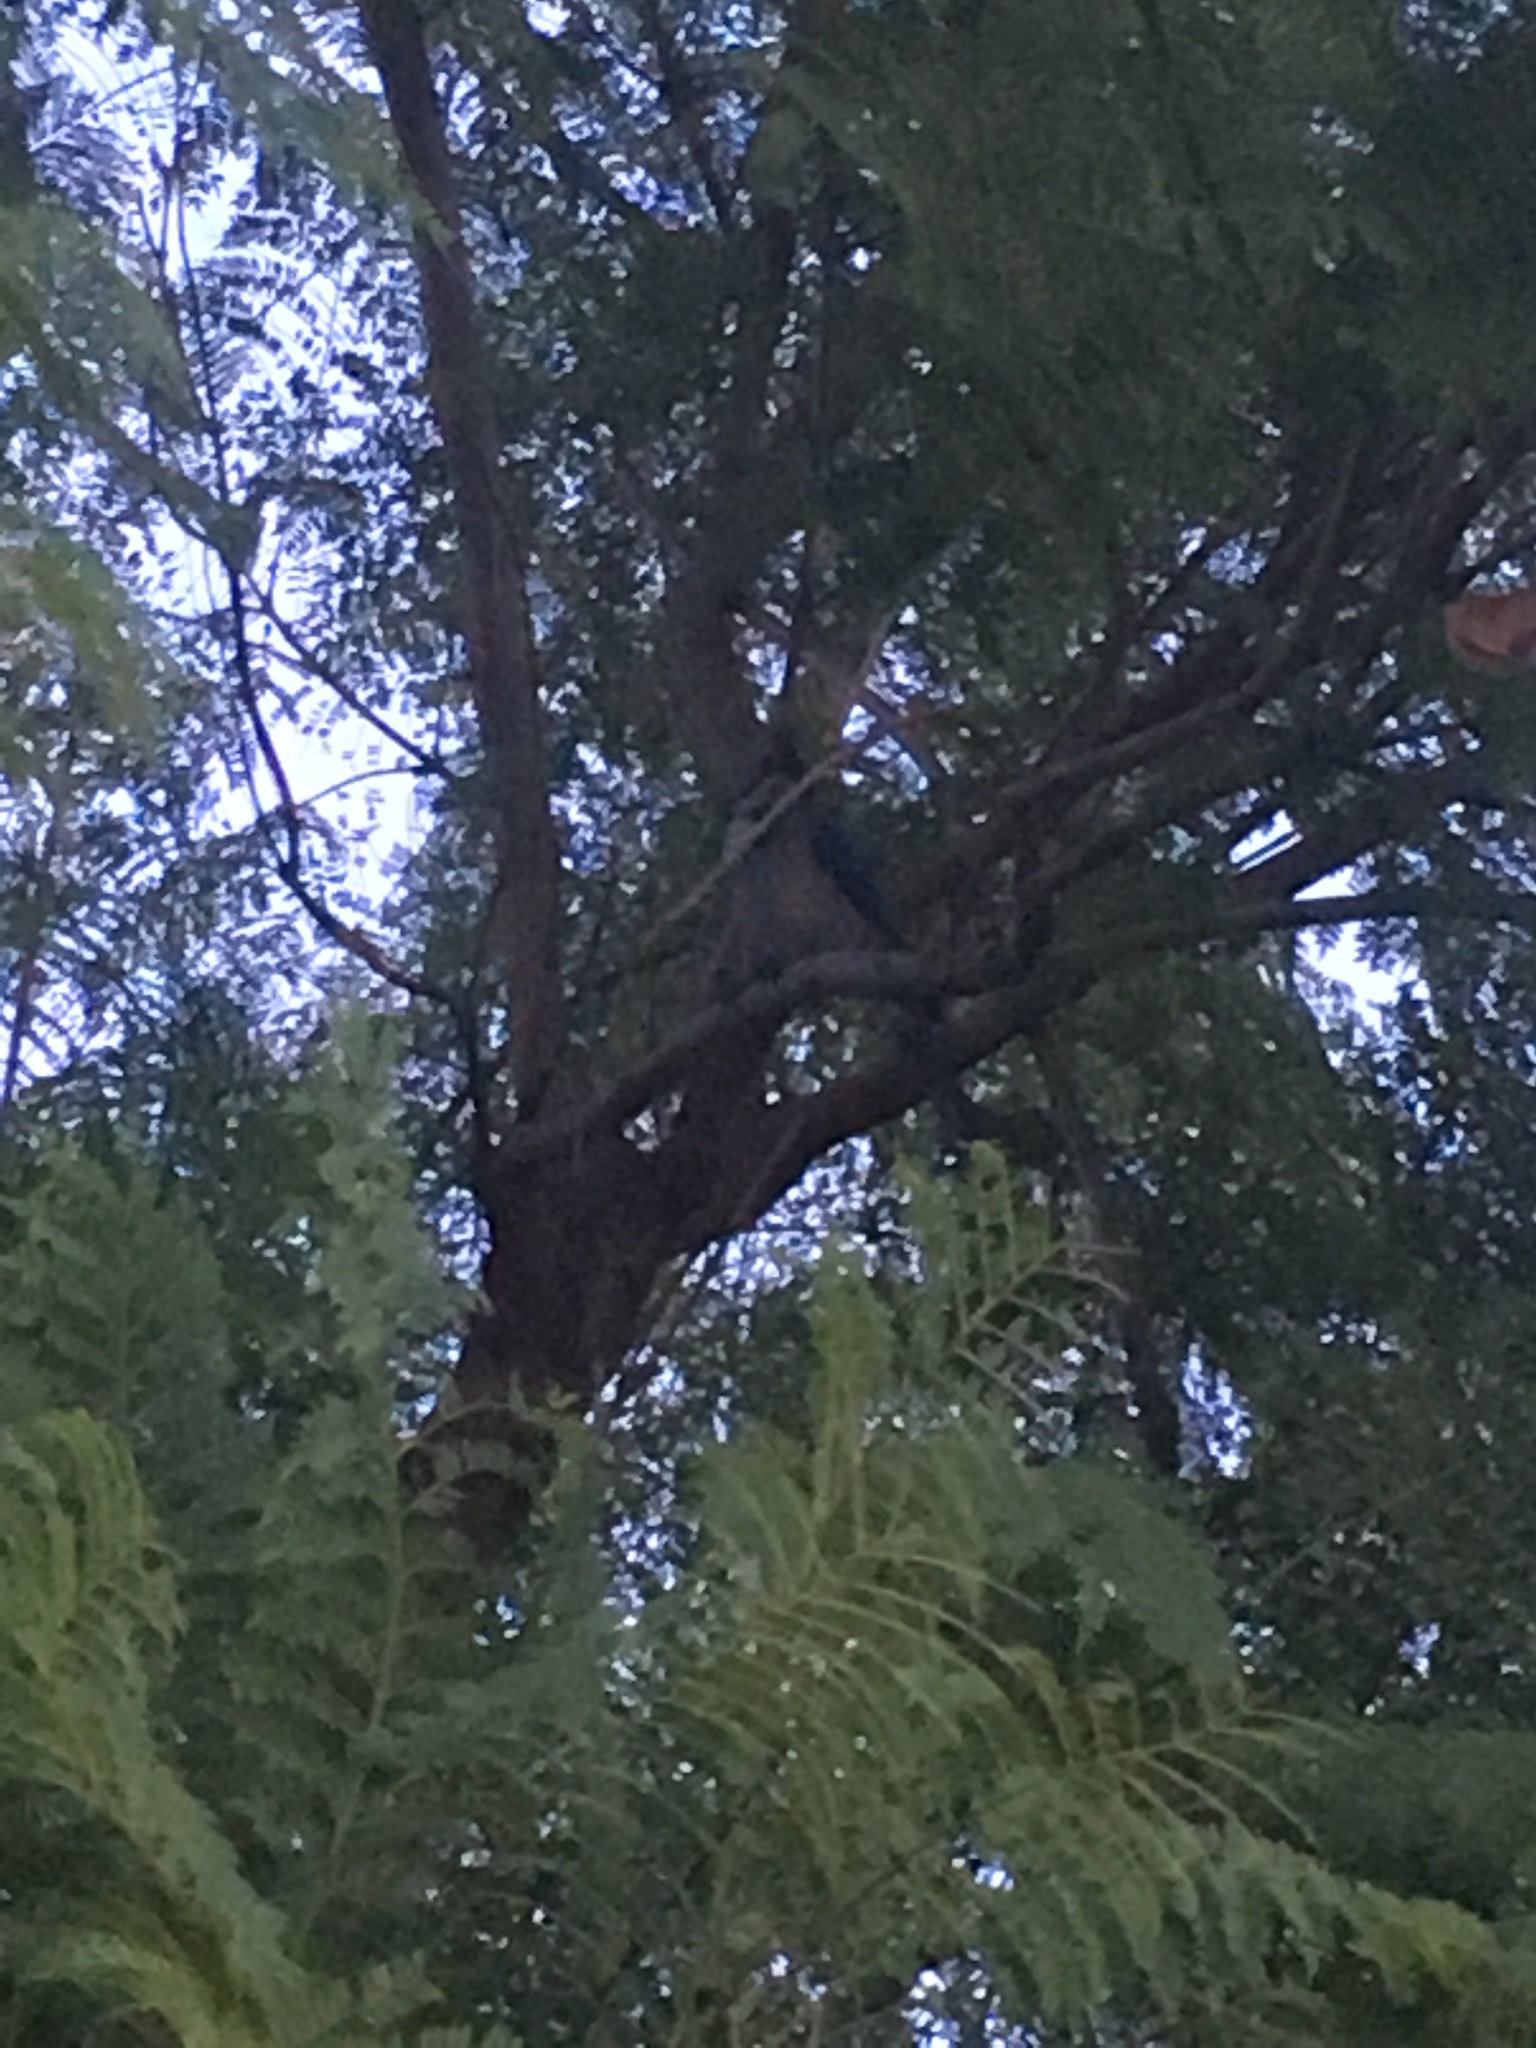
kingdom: Animalia
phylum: Chordata
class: Aves
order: Passeriformes
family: Corvidae
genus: Aphelocoma
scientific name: Aphelocoma californica
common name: California scrub-jay
